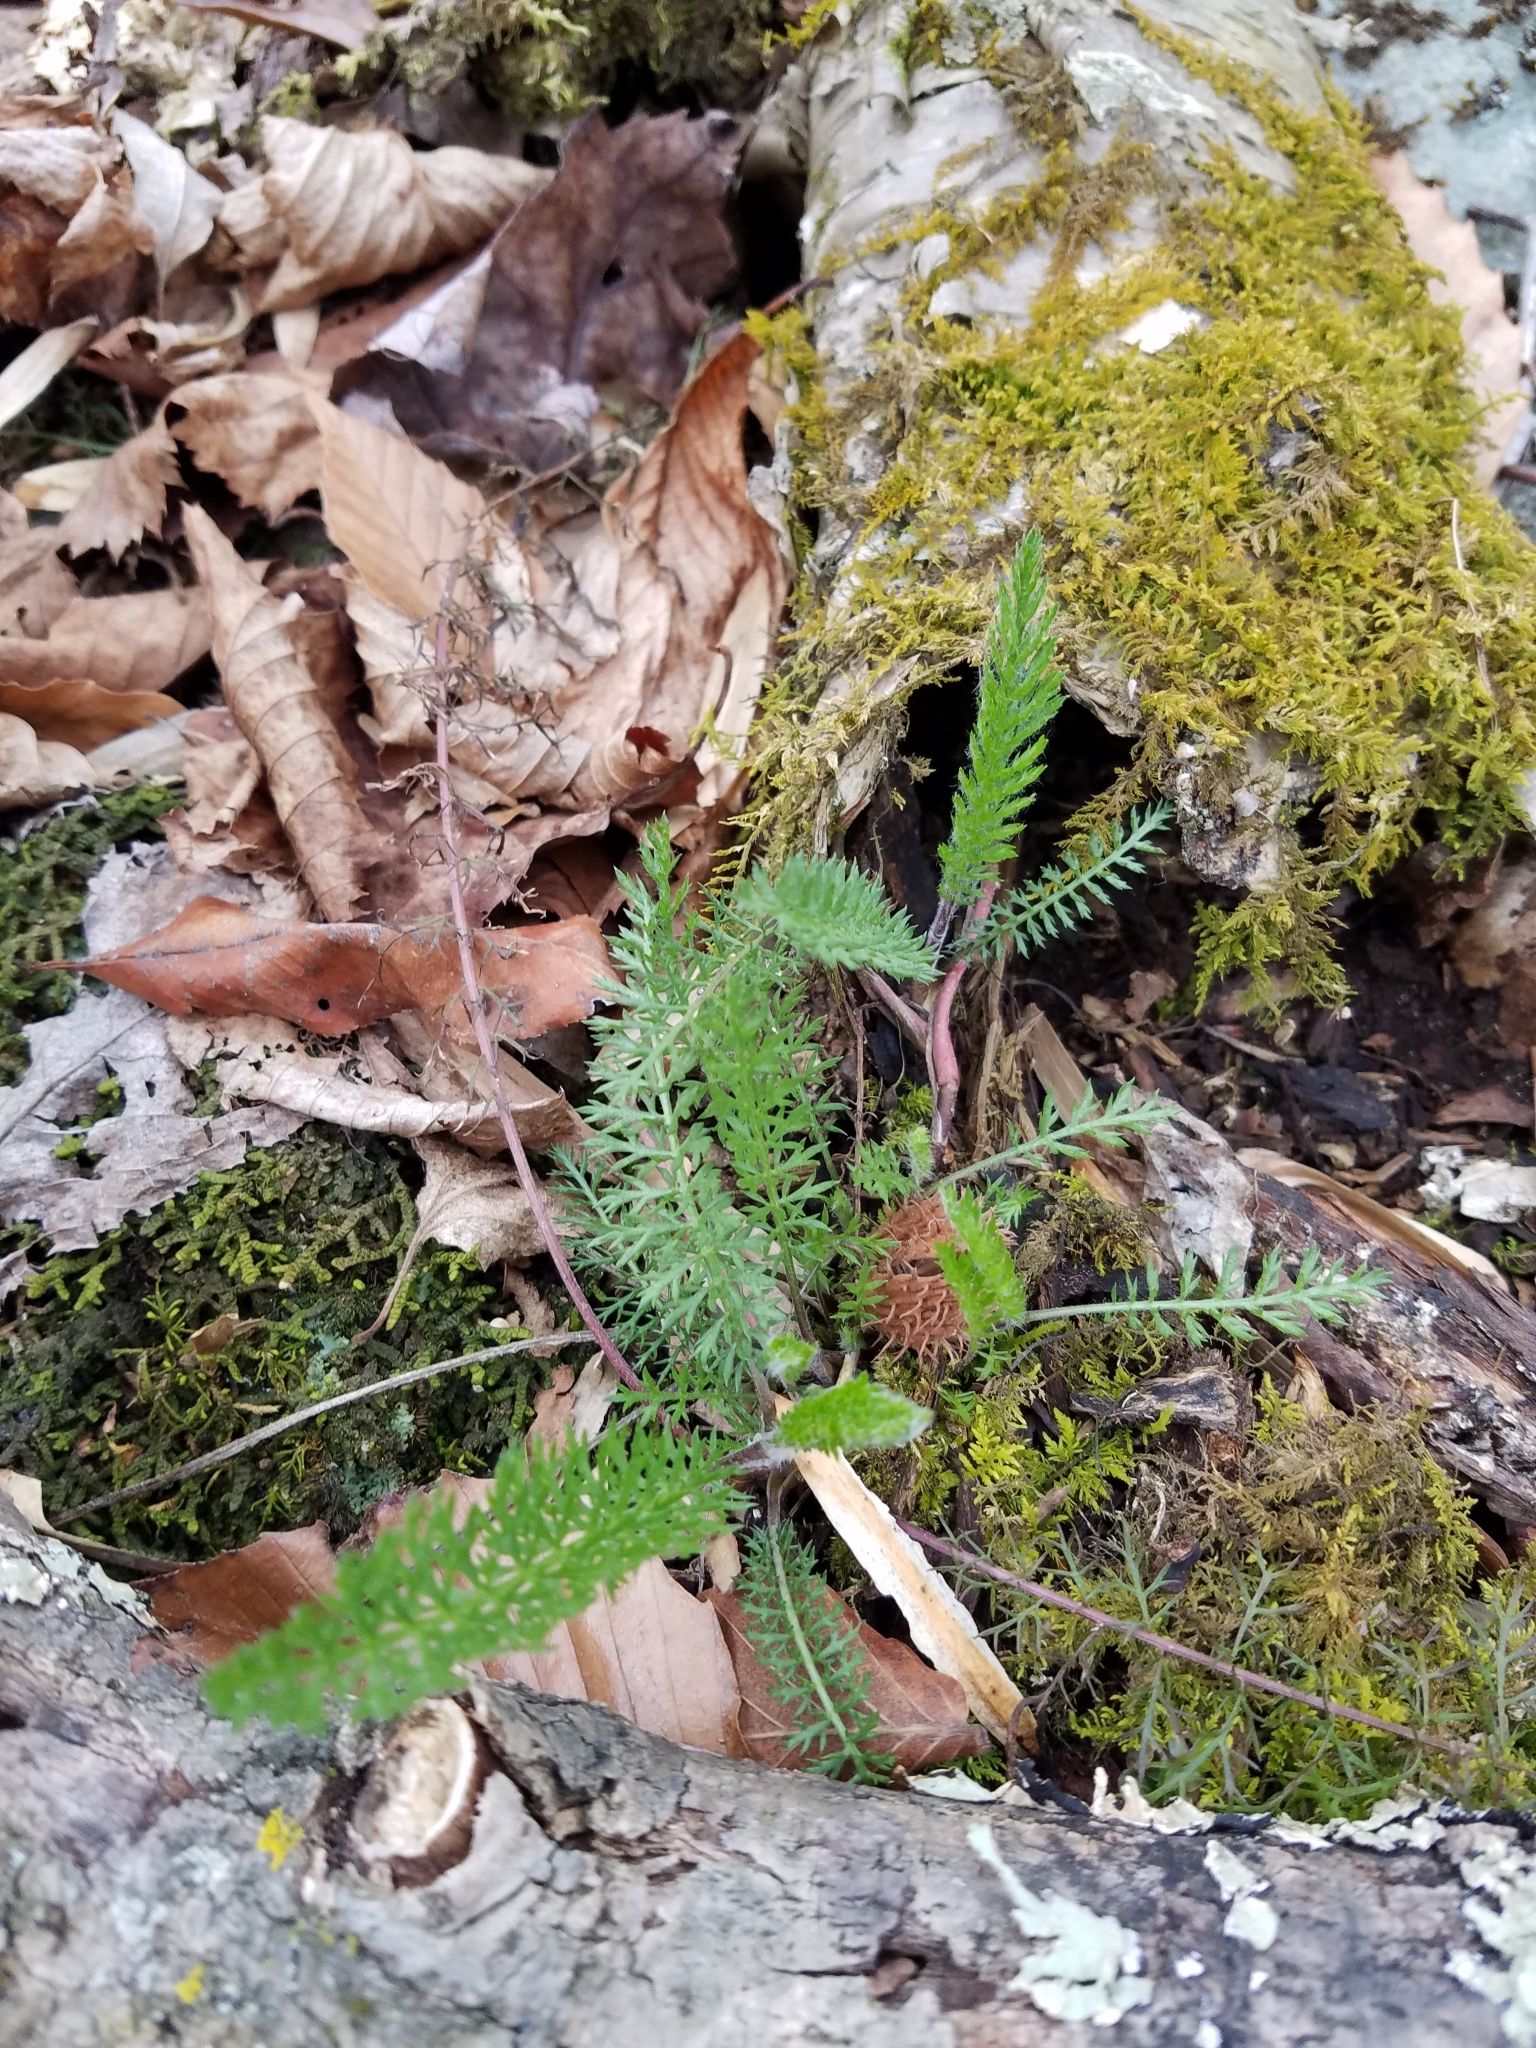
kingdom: Plantae
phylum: Tracheophyta
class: Magnoliopsida
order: Asterales
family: Asteraceae
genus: Achillea
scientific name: Achillea millefolium
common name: Yarrow
